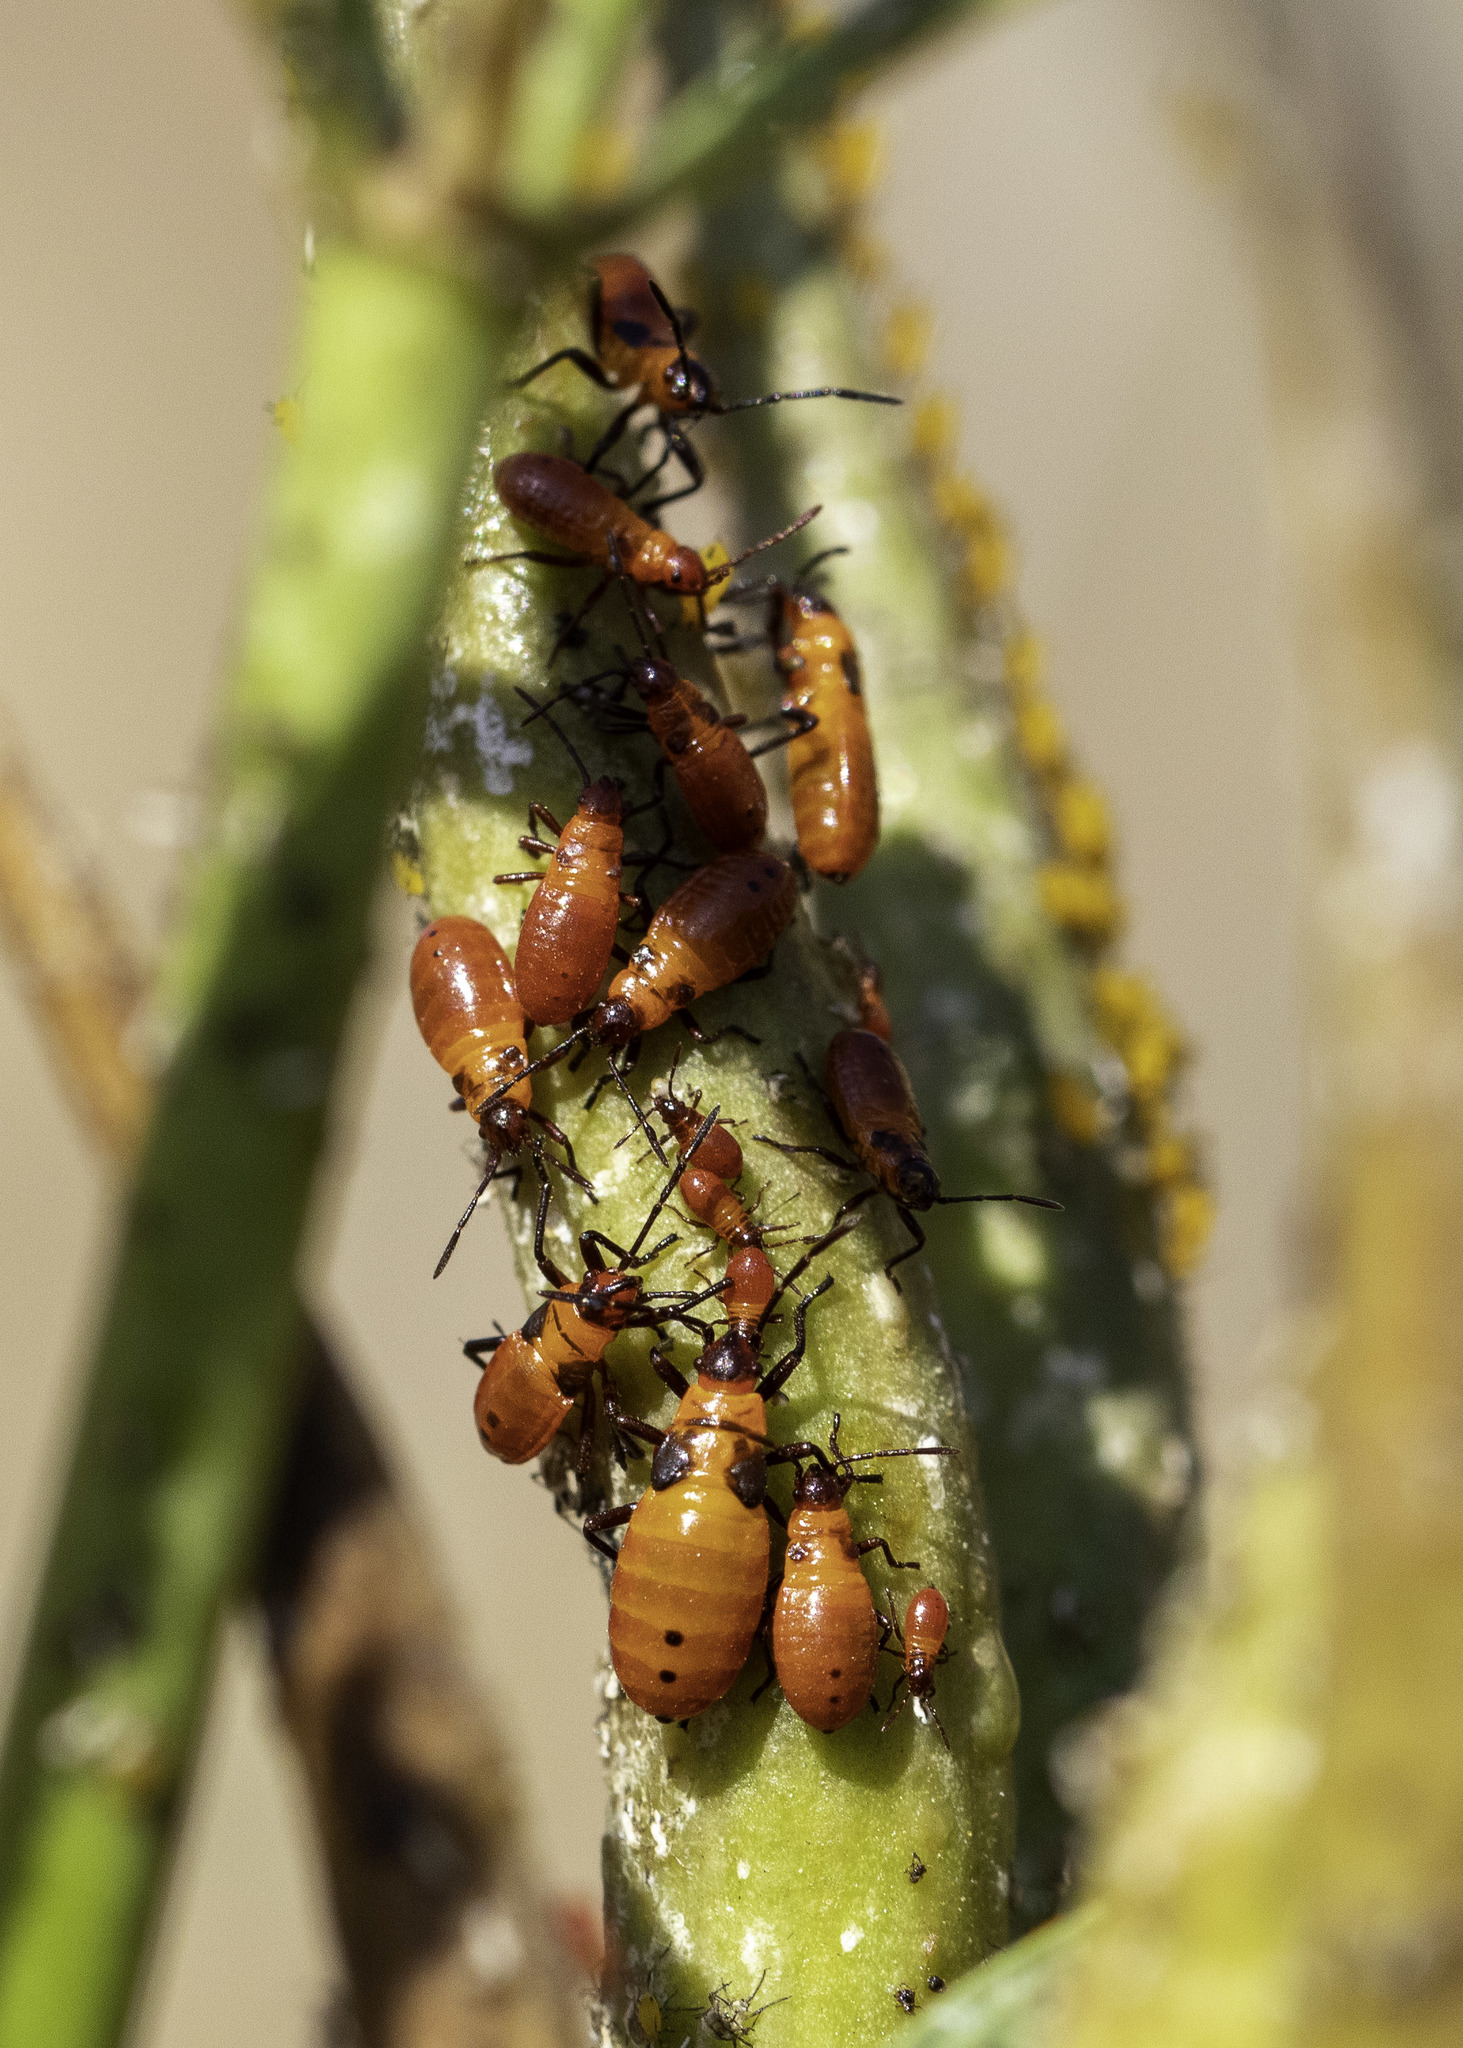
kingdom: Animalia
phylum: Arthropoda
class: Insecta
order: Hemiptera
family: Lygaeidae
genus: Oncopeltus
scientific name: Oncopeltus fasciatus
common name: Large milkweed bug
